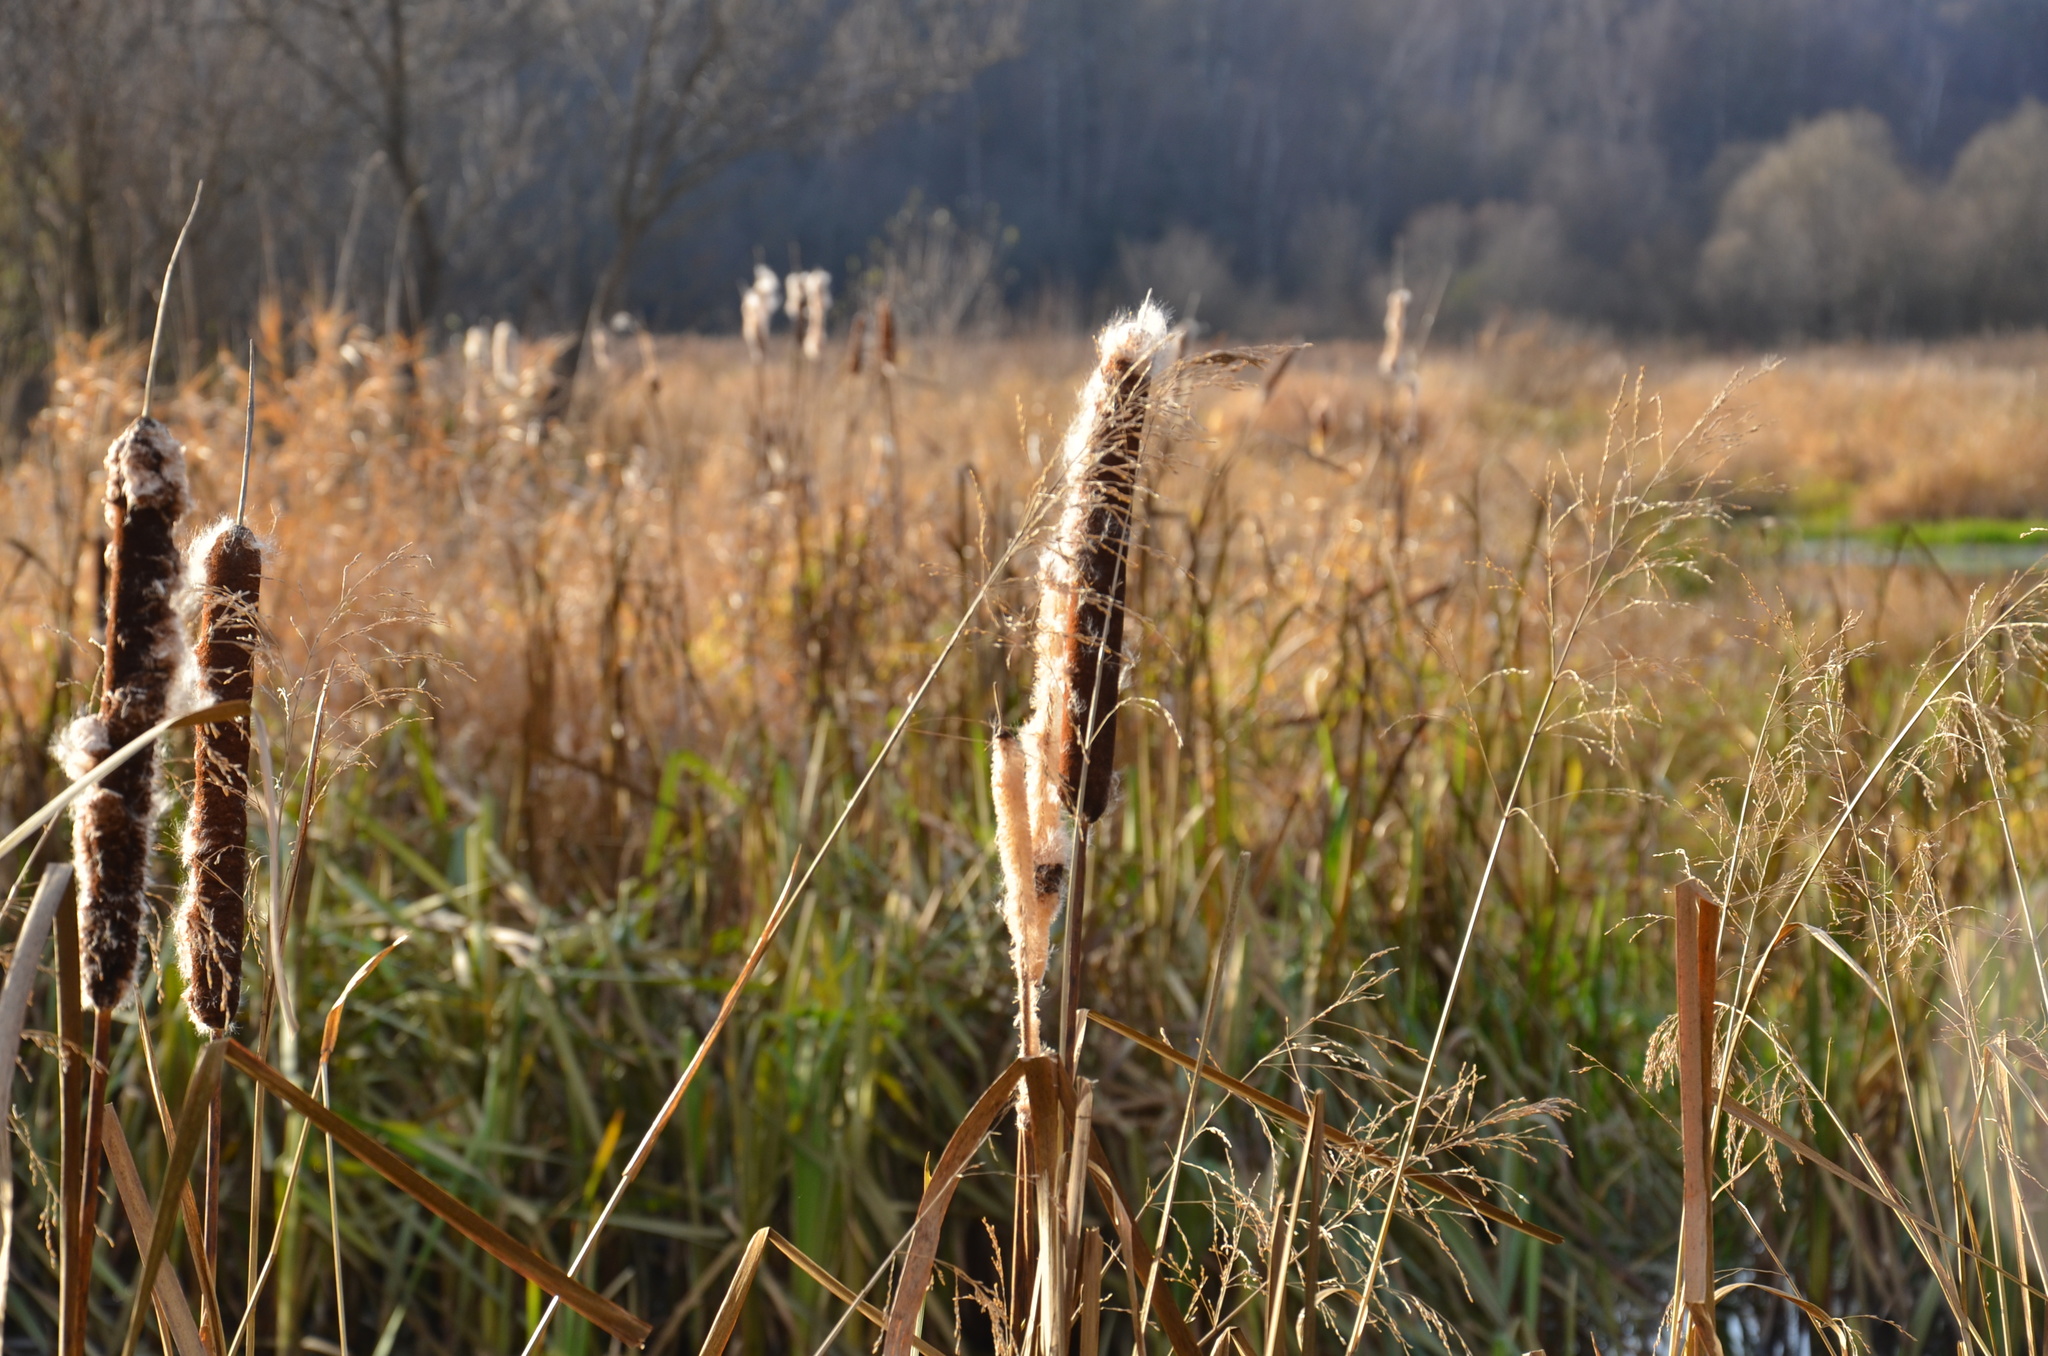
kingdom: Plantae
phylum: Tracheophyta
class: Liliopsida
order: Poales
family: Typhaceae
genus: Typha
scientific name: Typha latifolia
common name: Broadleaf cattail
